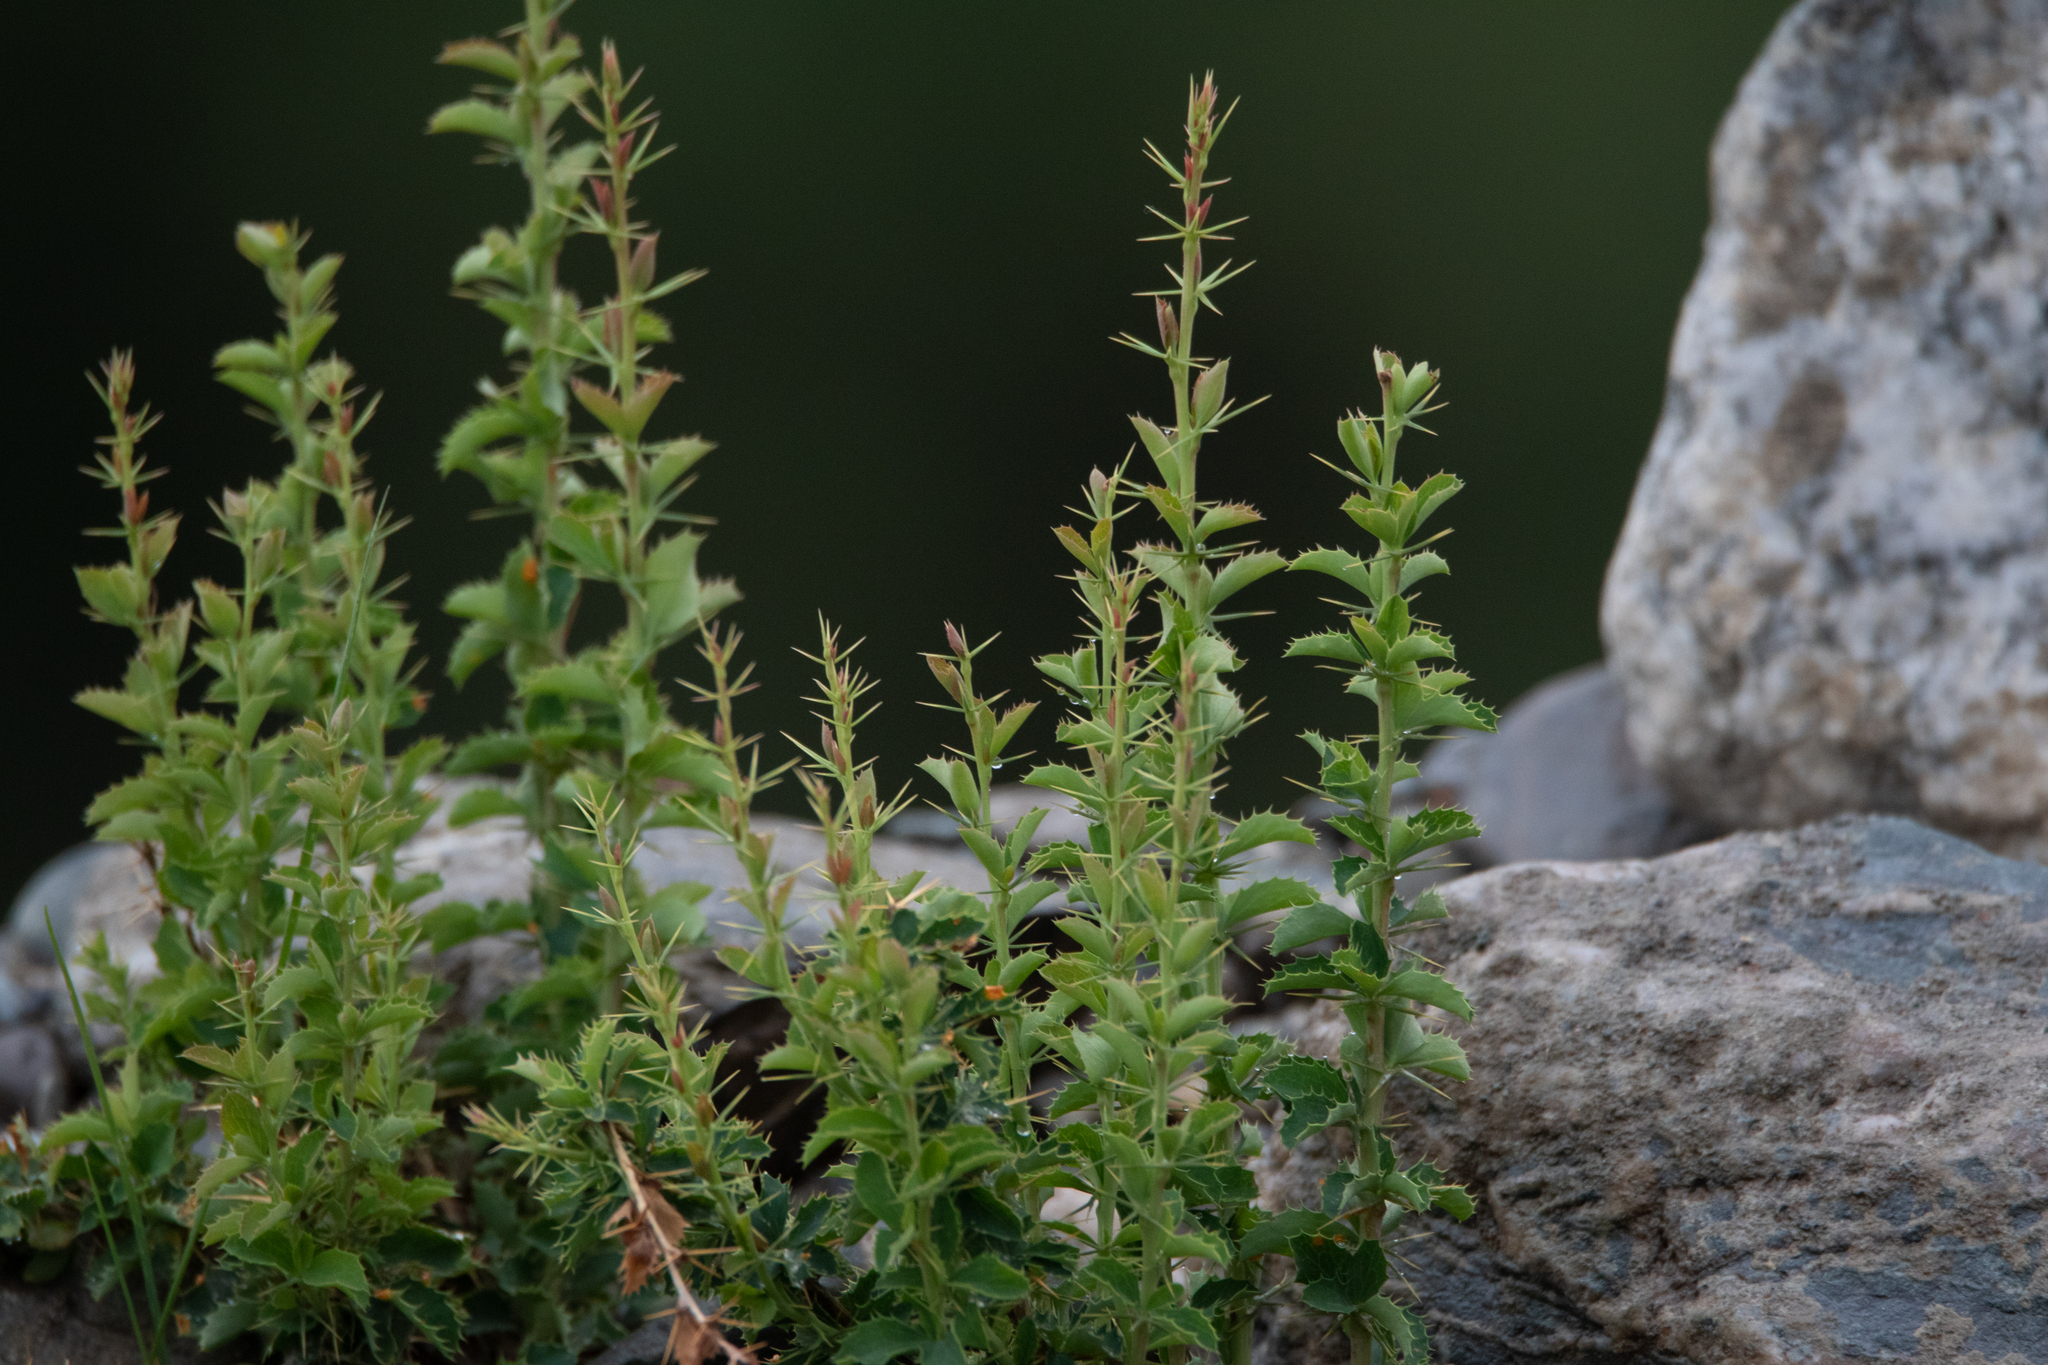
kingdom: Plantae
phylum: Tracheophyta
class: Magnoliopsida
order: Ranunculales
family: Berberidaceae
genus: Berberis
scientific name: Berberis sibirica
